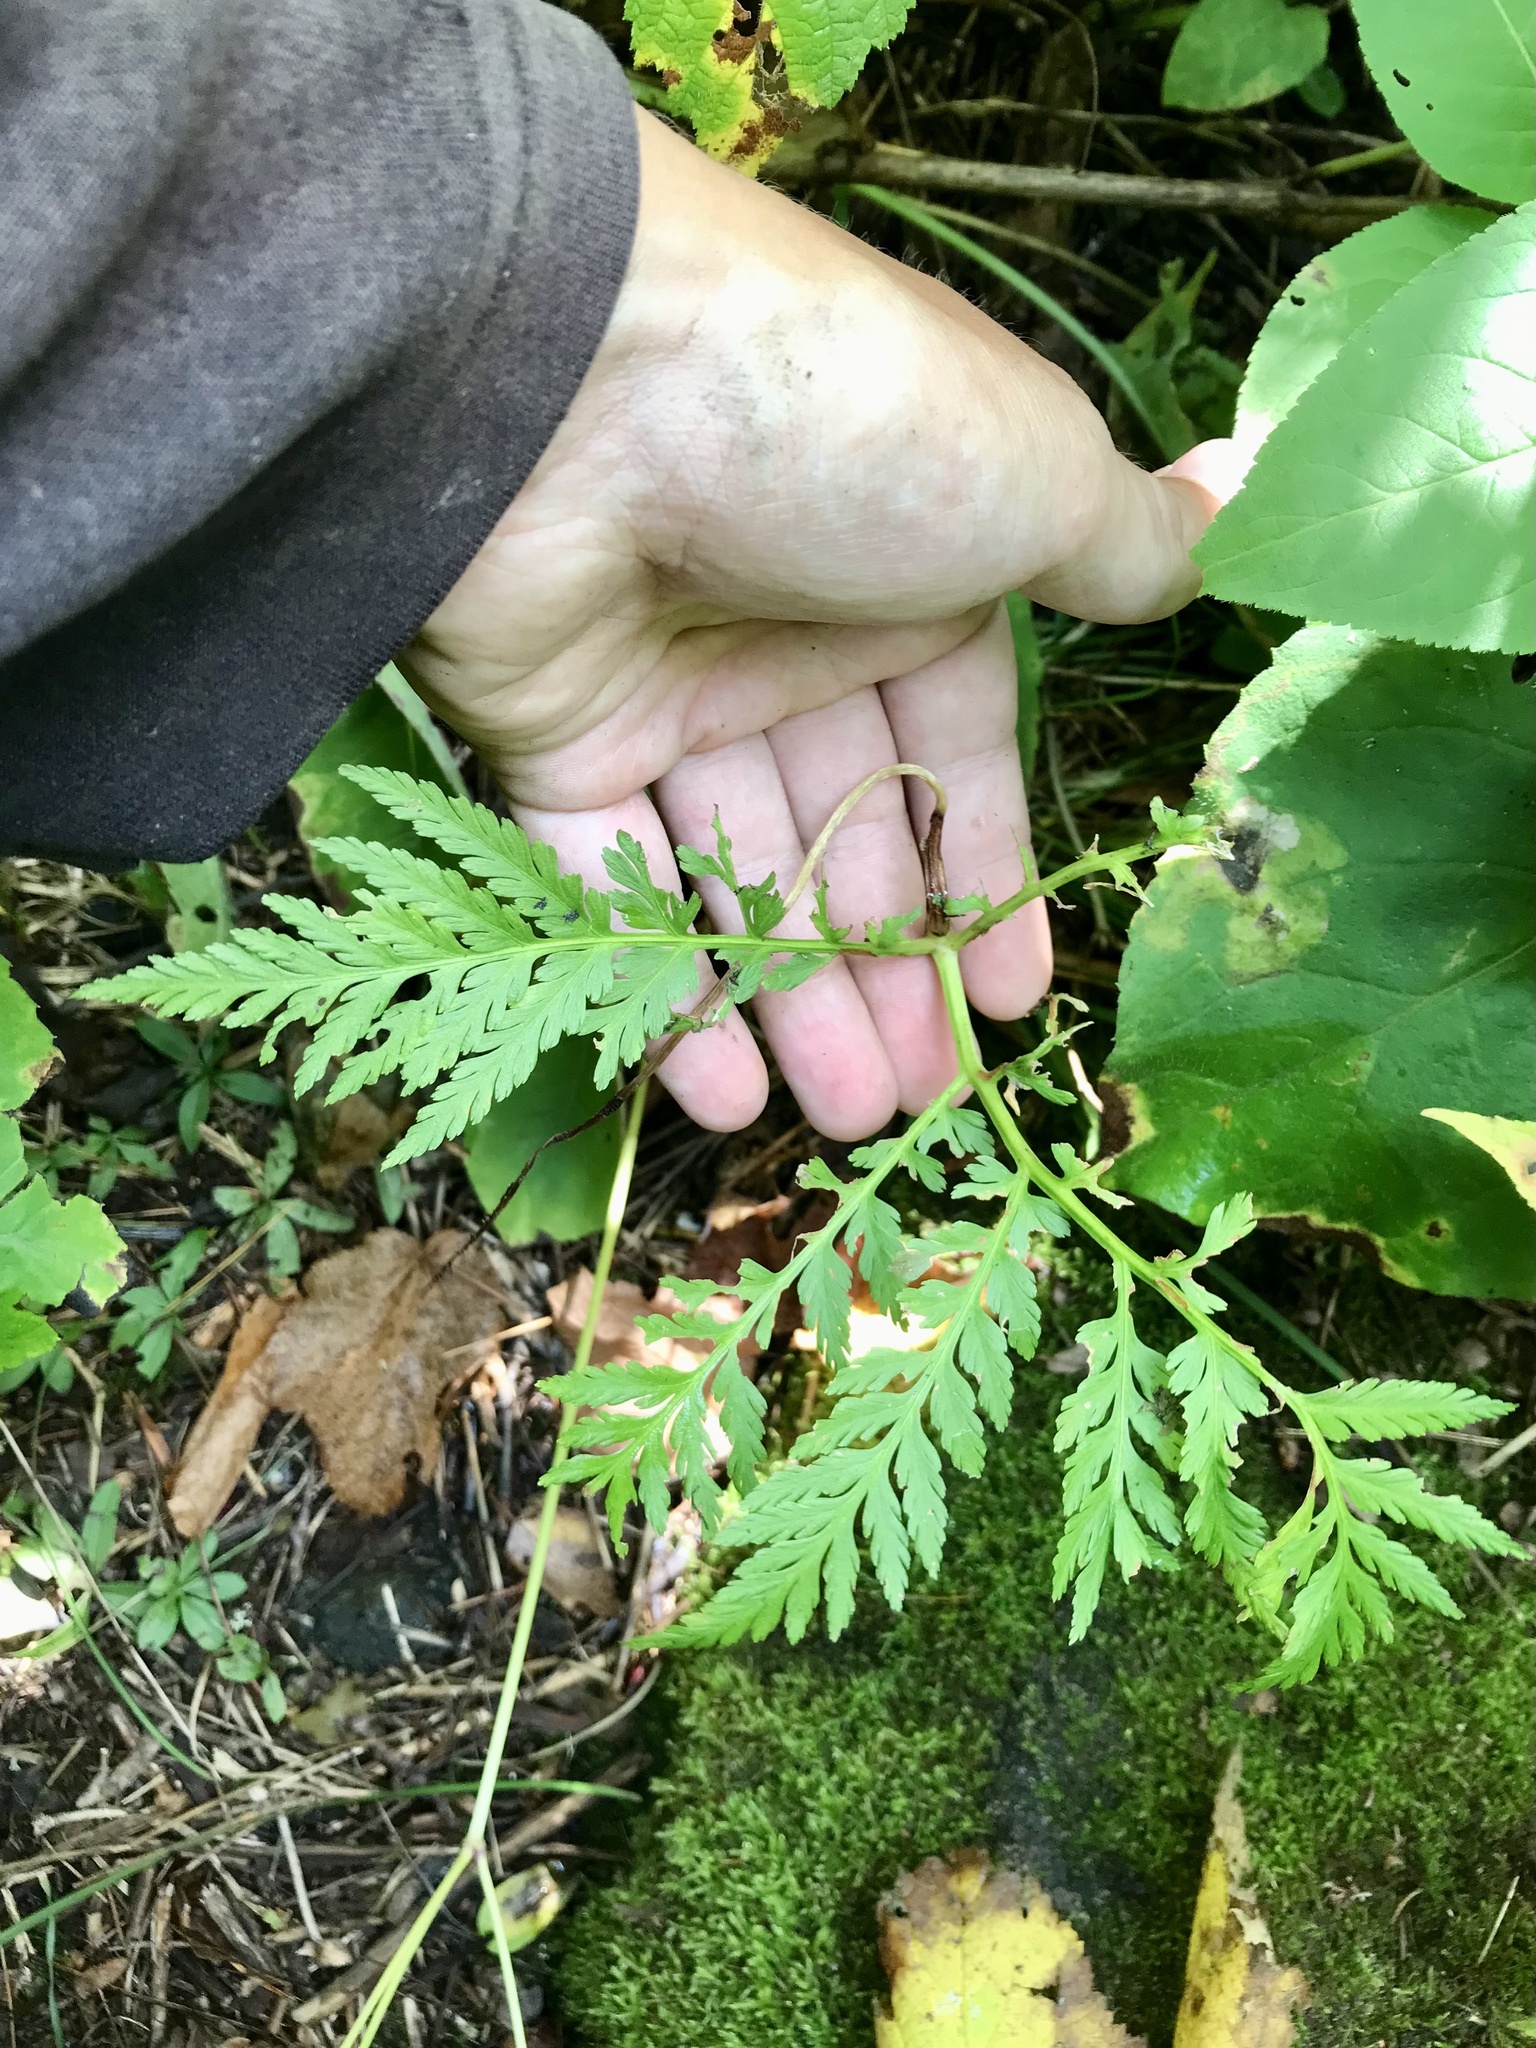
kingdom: Plantae
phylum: Tracheophyta
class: Polypodiopsida
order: Ophioglossales
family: Ophioglossaceae
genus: Botrypus
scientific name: Botrypus virginianus
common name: Common grapefern
